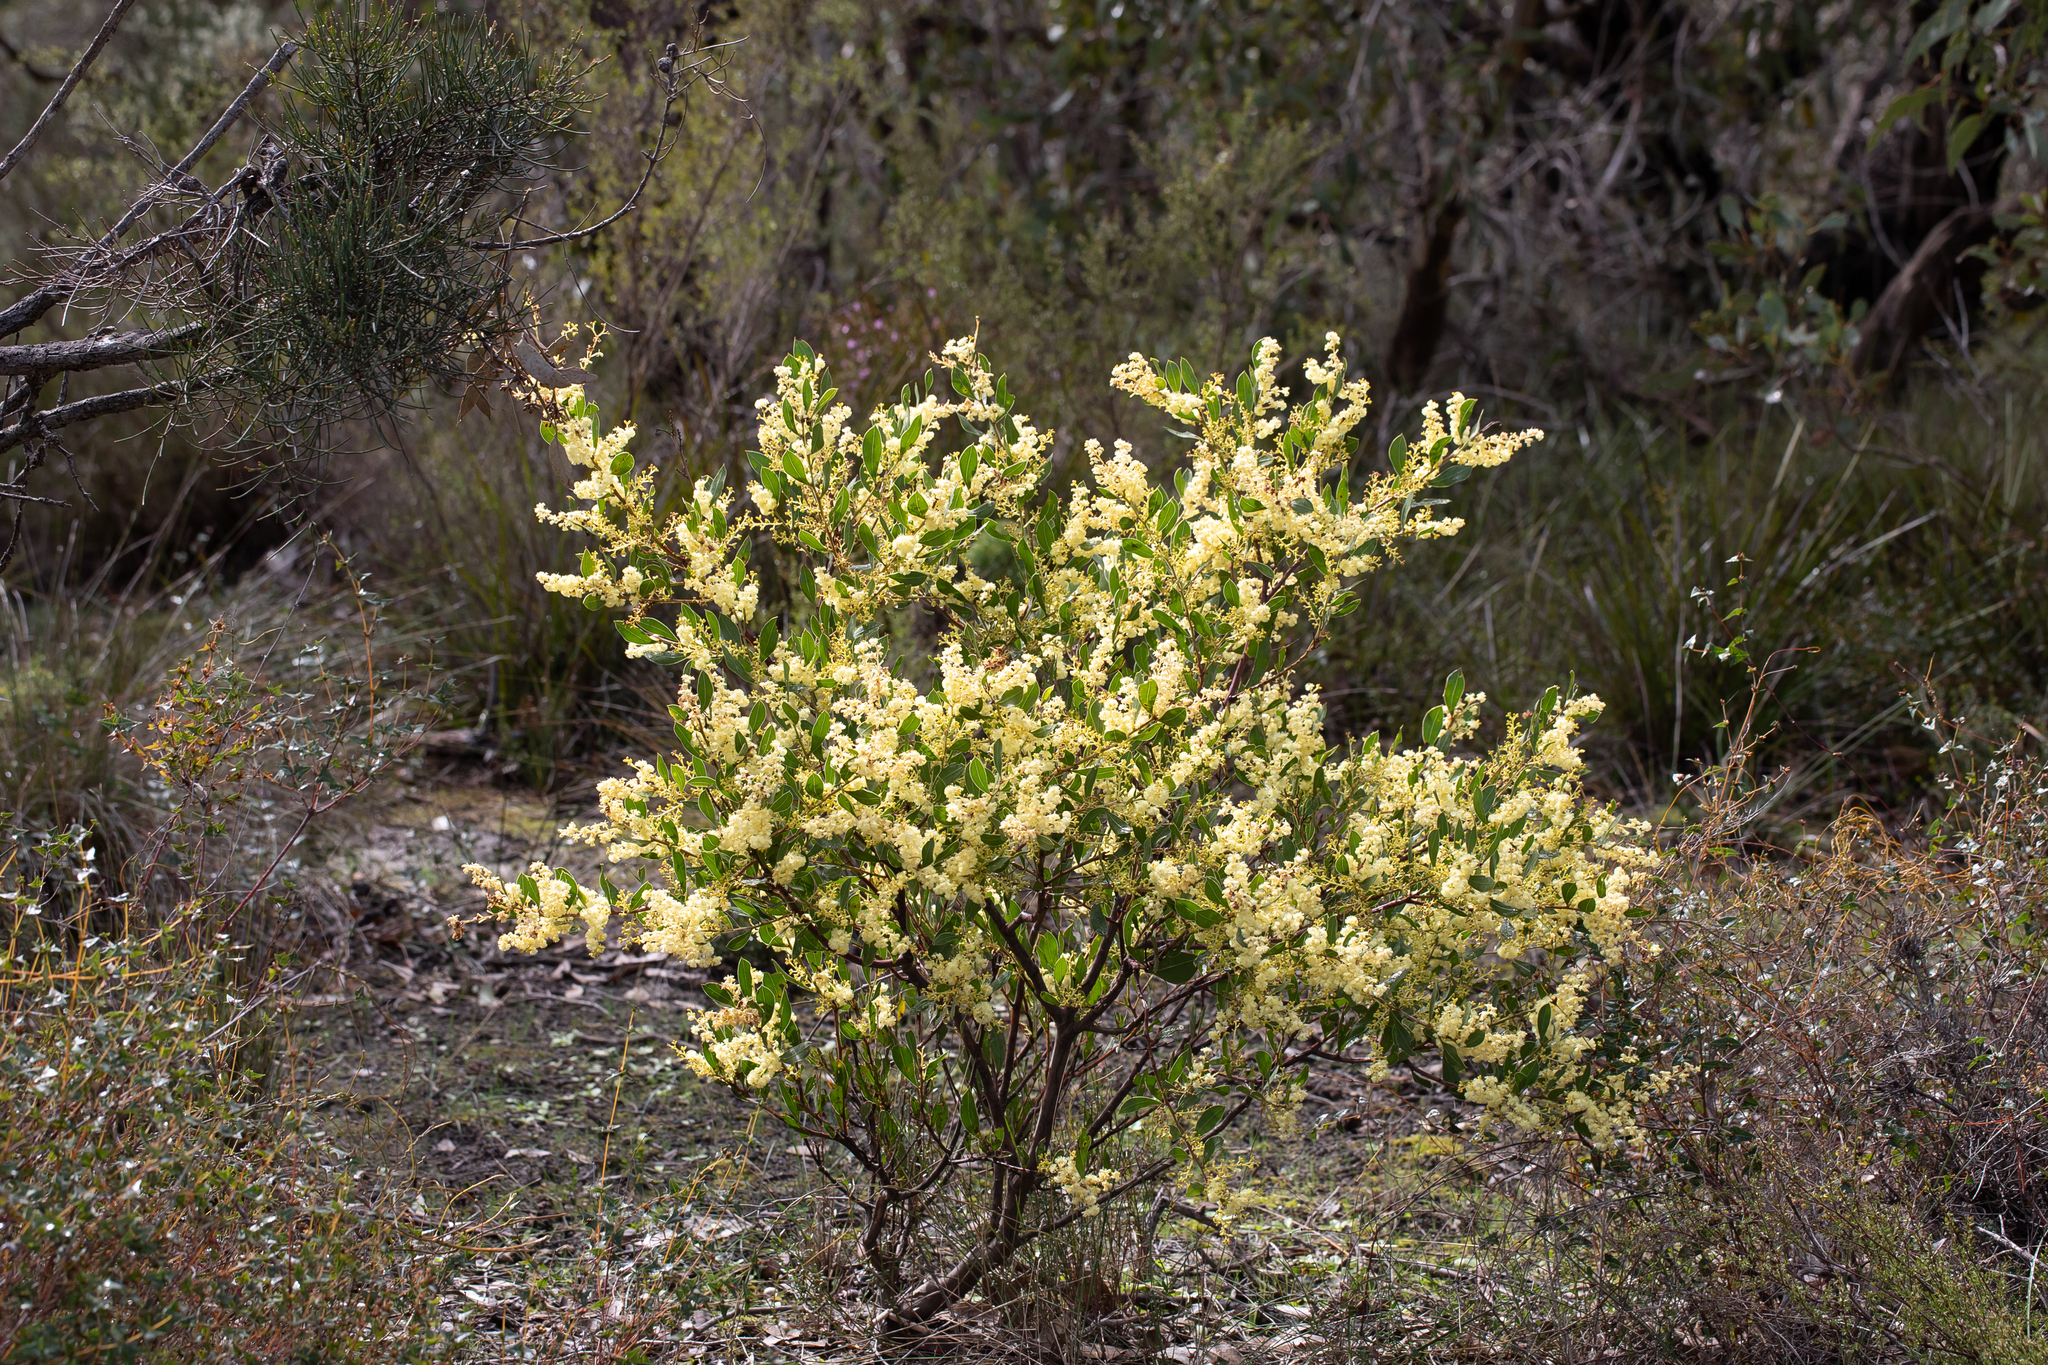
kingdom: Plantae
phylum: Tracheophyta
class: Magnoliopsida
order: Fabales
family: Fabaceae
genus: Acacia
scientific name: Acacia myrtifolia
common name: Myrtle wattle
